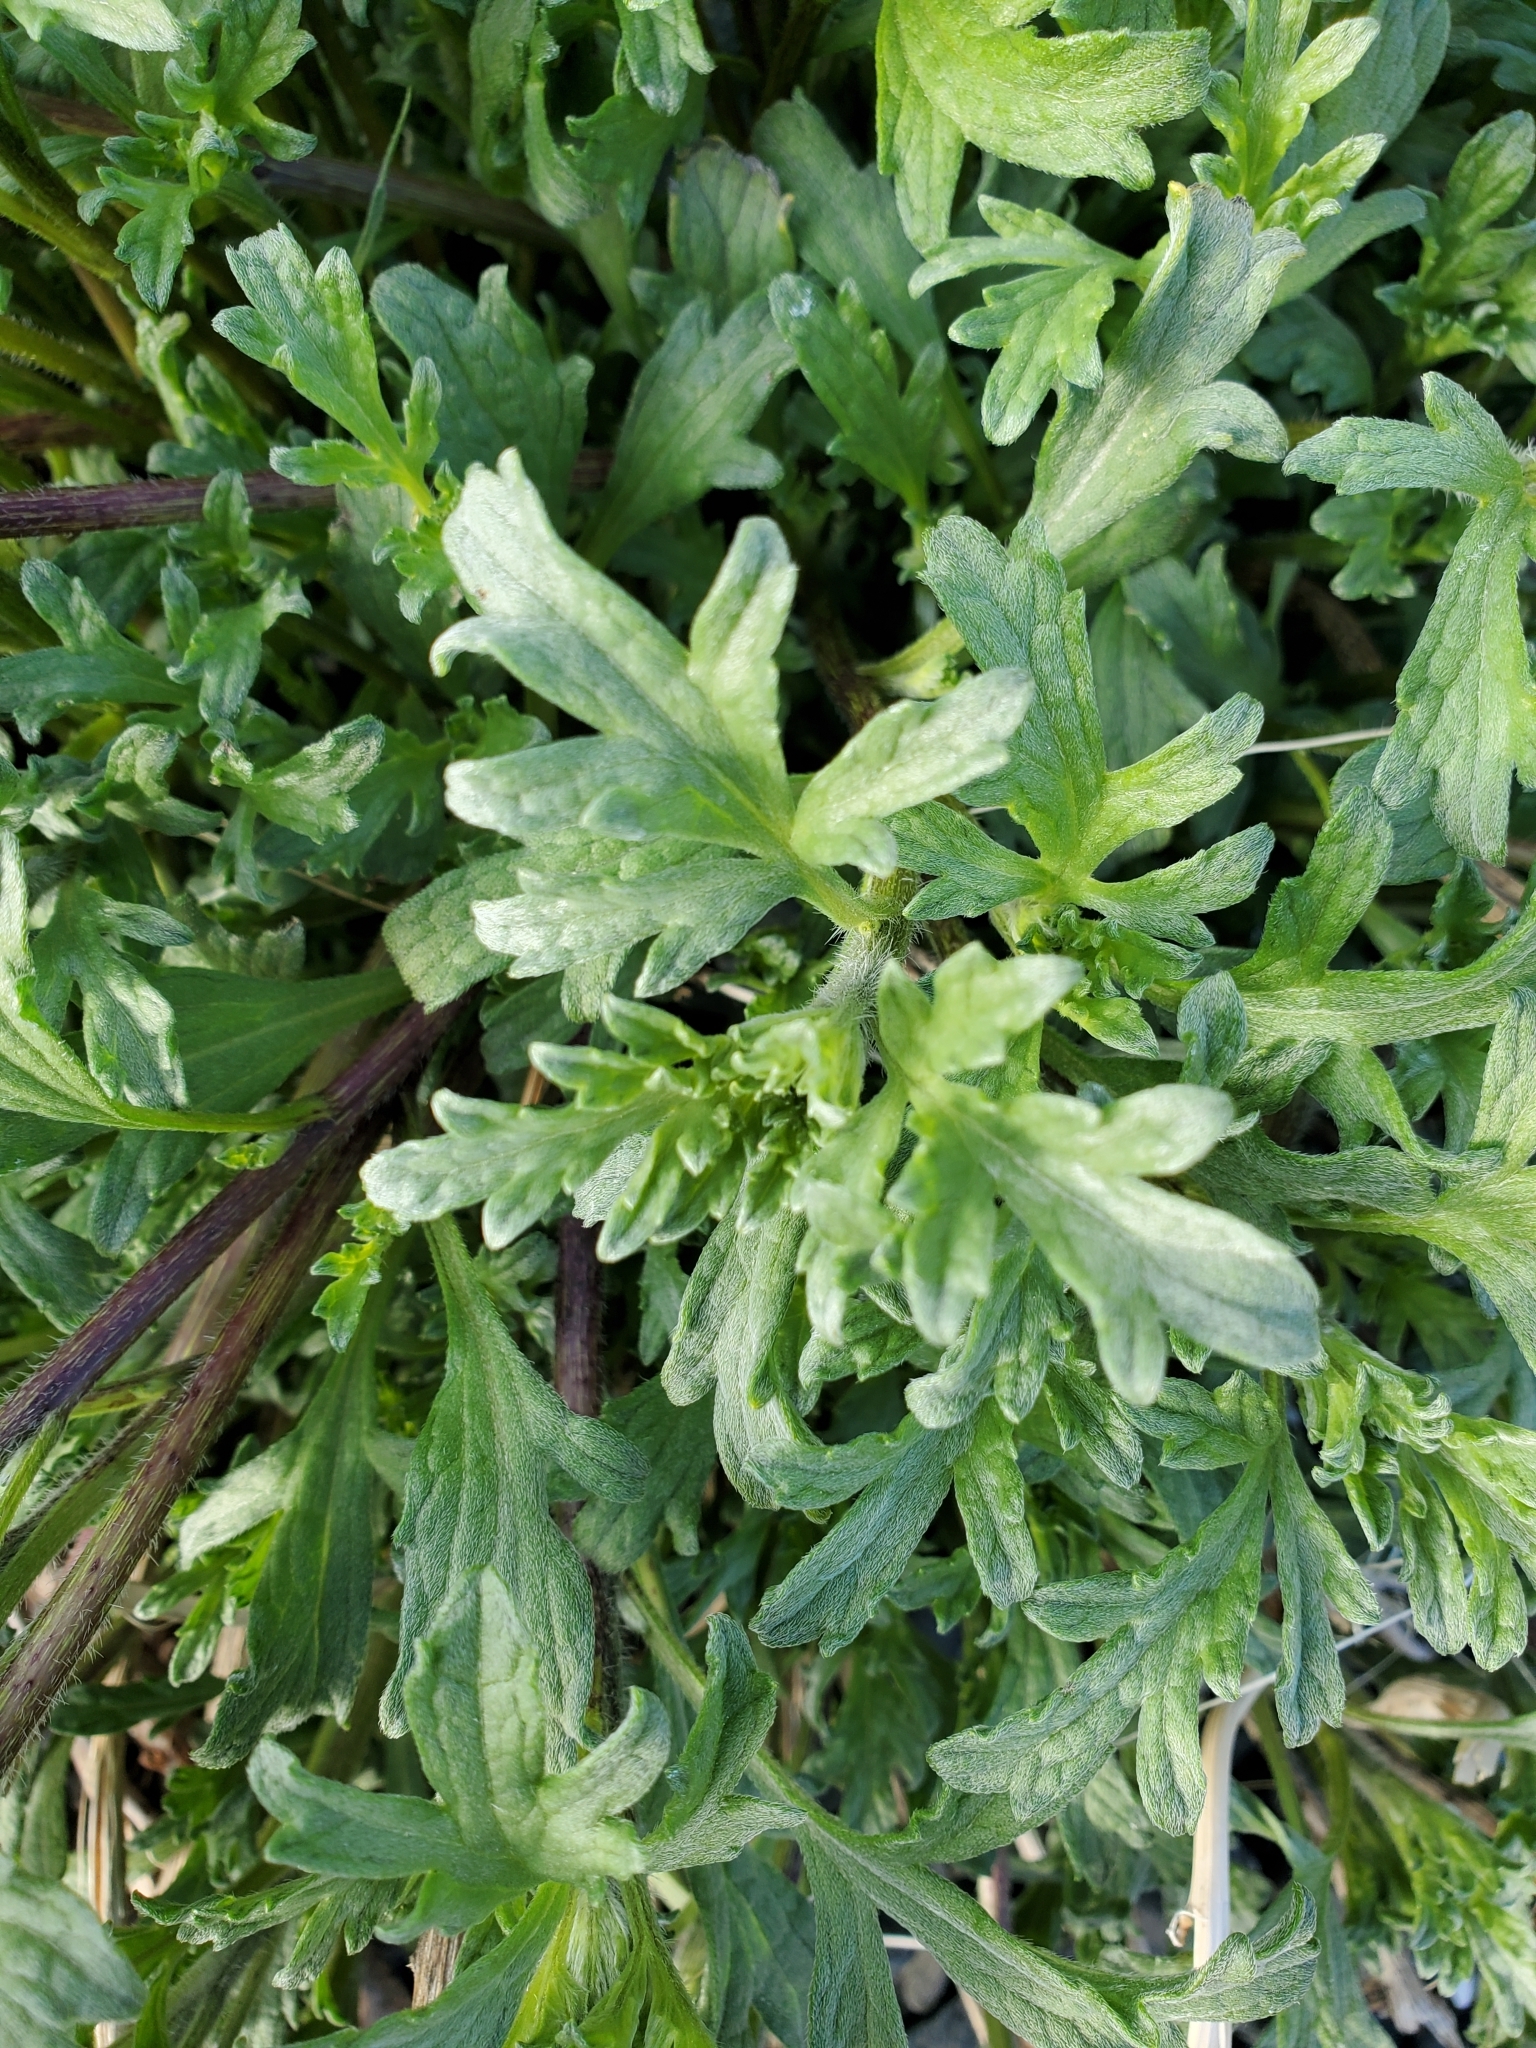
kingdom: Plantae
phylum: Tracheophyta
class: Magnoliopsida
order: Asterales
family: Asteraceae
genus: Ambrosia
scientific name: Ambrosia chamissonis
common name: Beachbur
